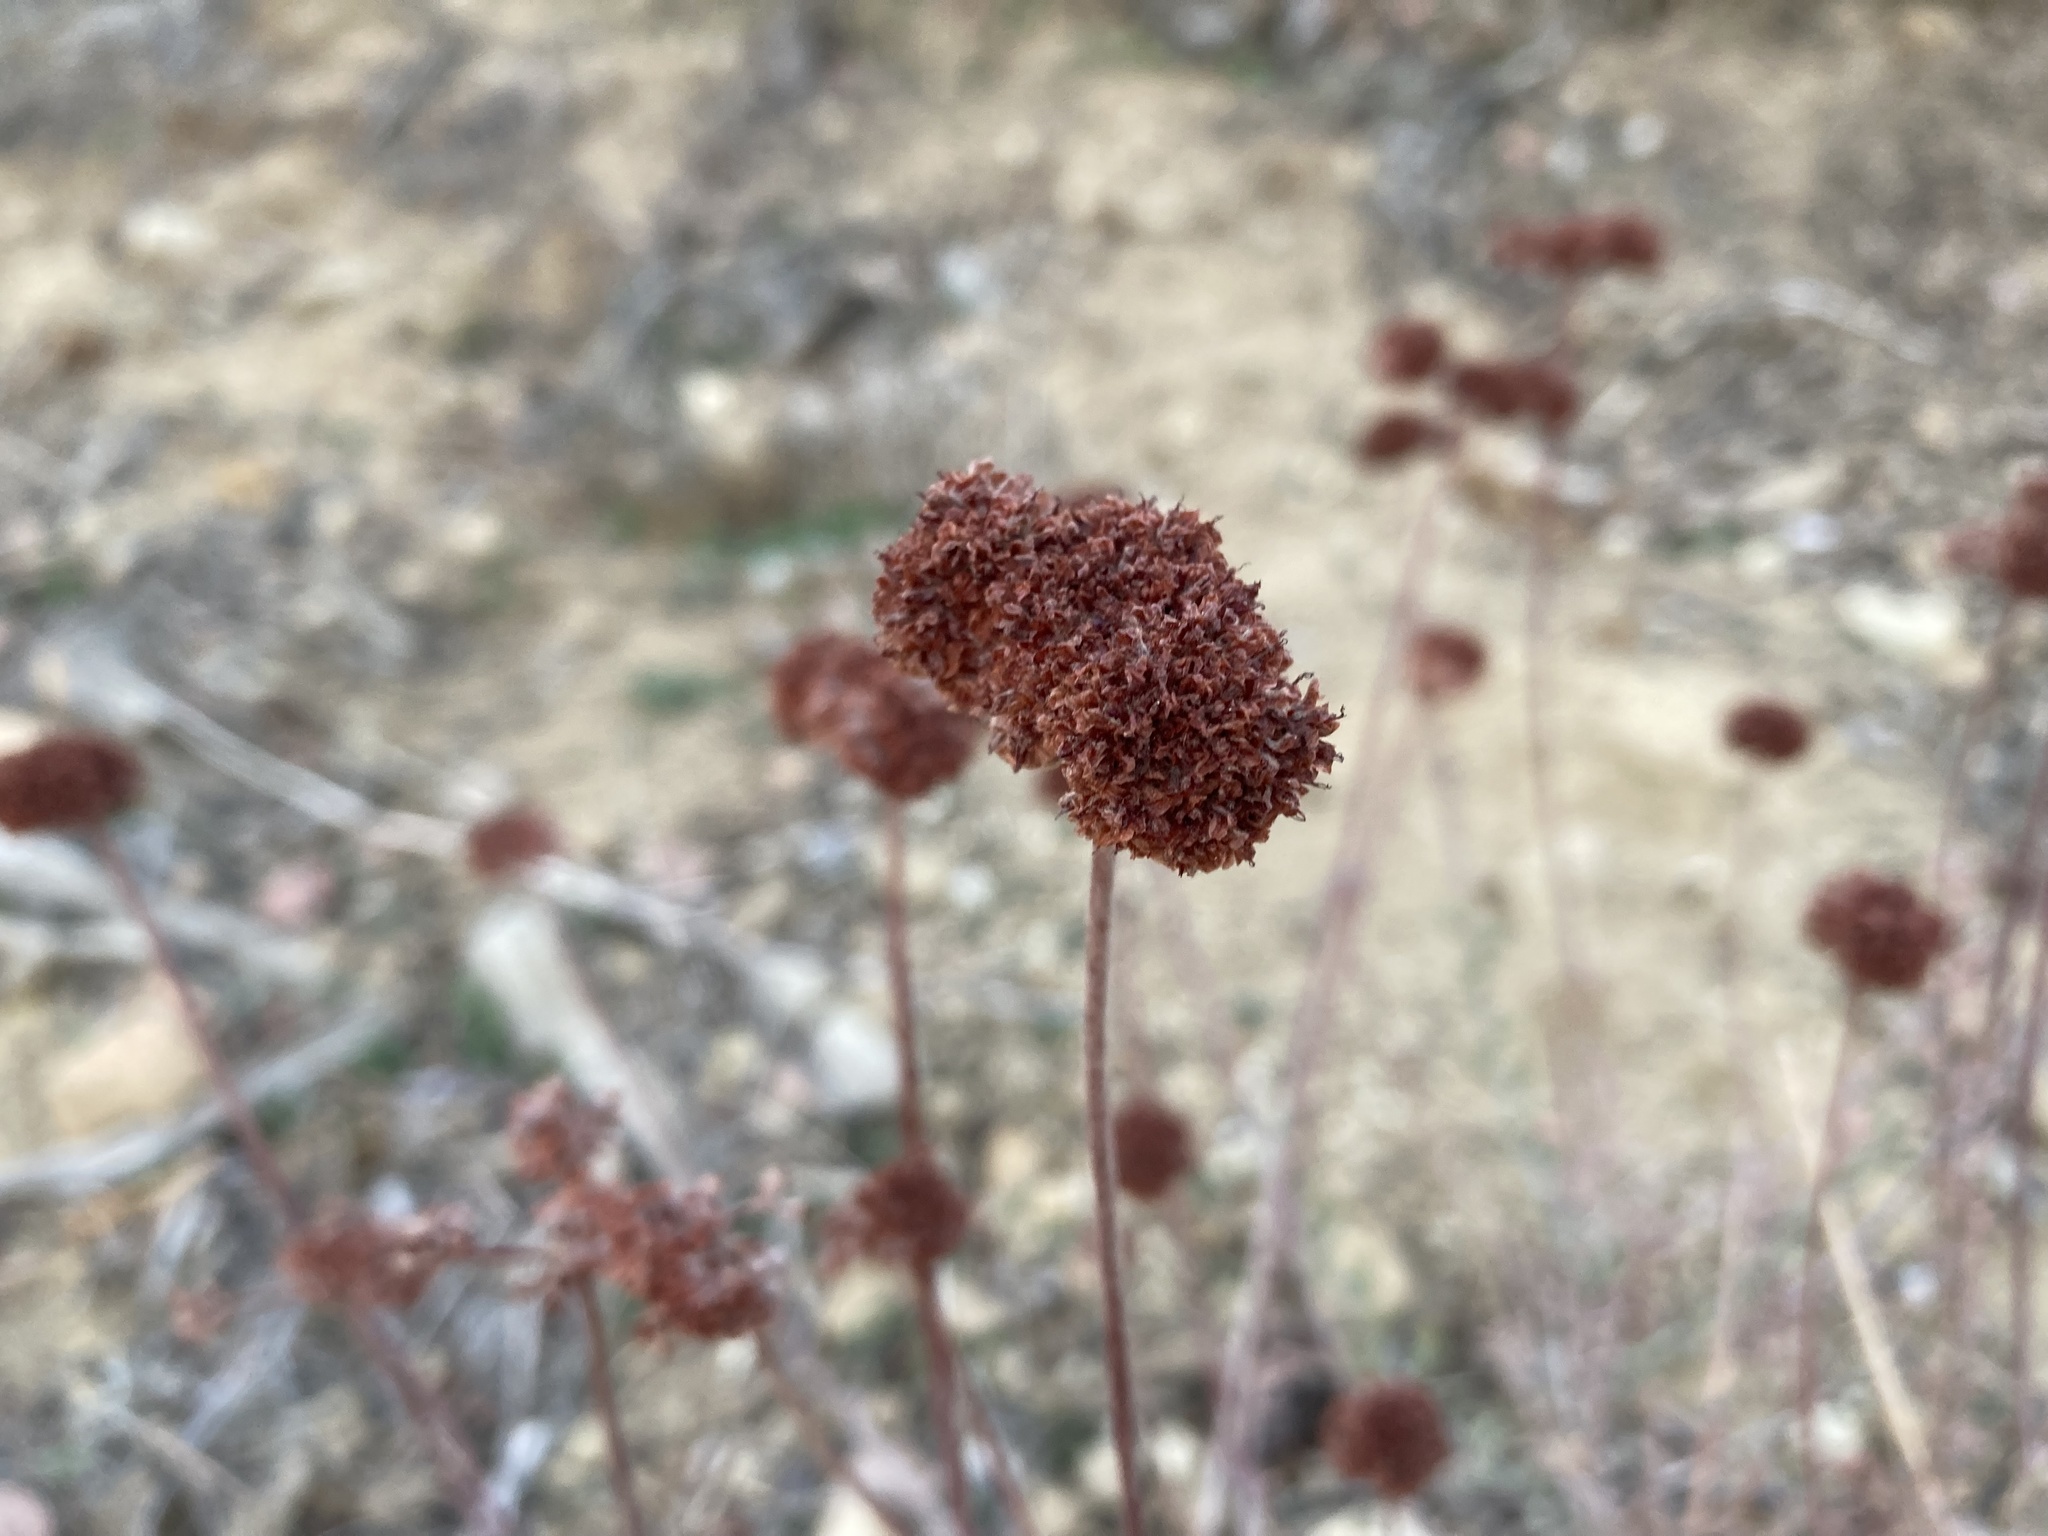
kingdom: Plantae
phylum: Tracheophyta
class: Magnoliopsida
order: Caryophyllales
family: Polygonaceae
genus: Eriogonum
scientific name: Eriogonum fasciculatum
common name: California wild buckwheat
